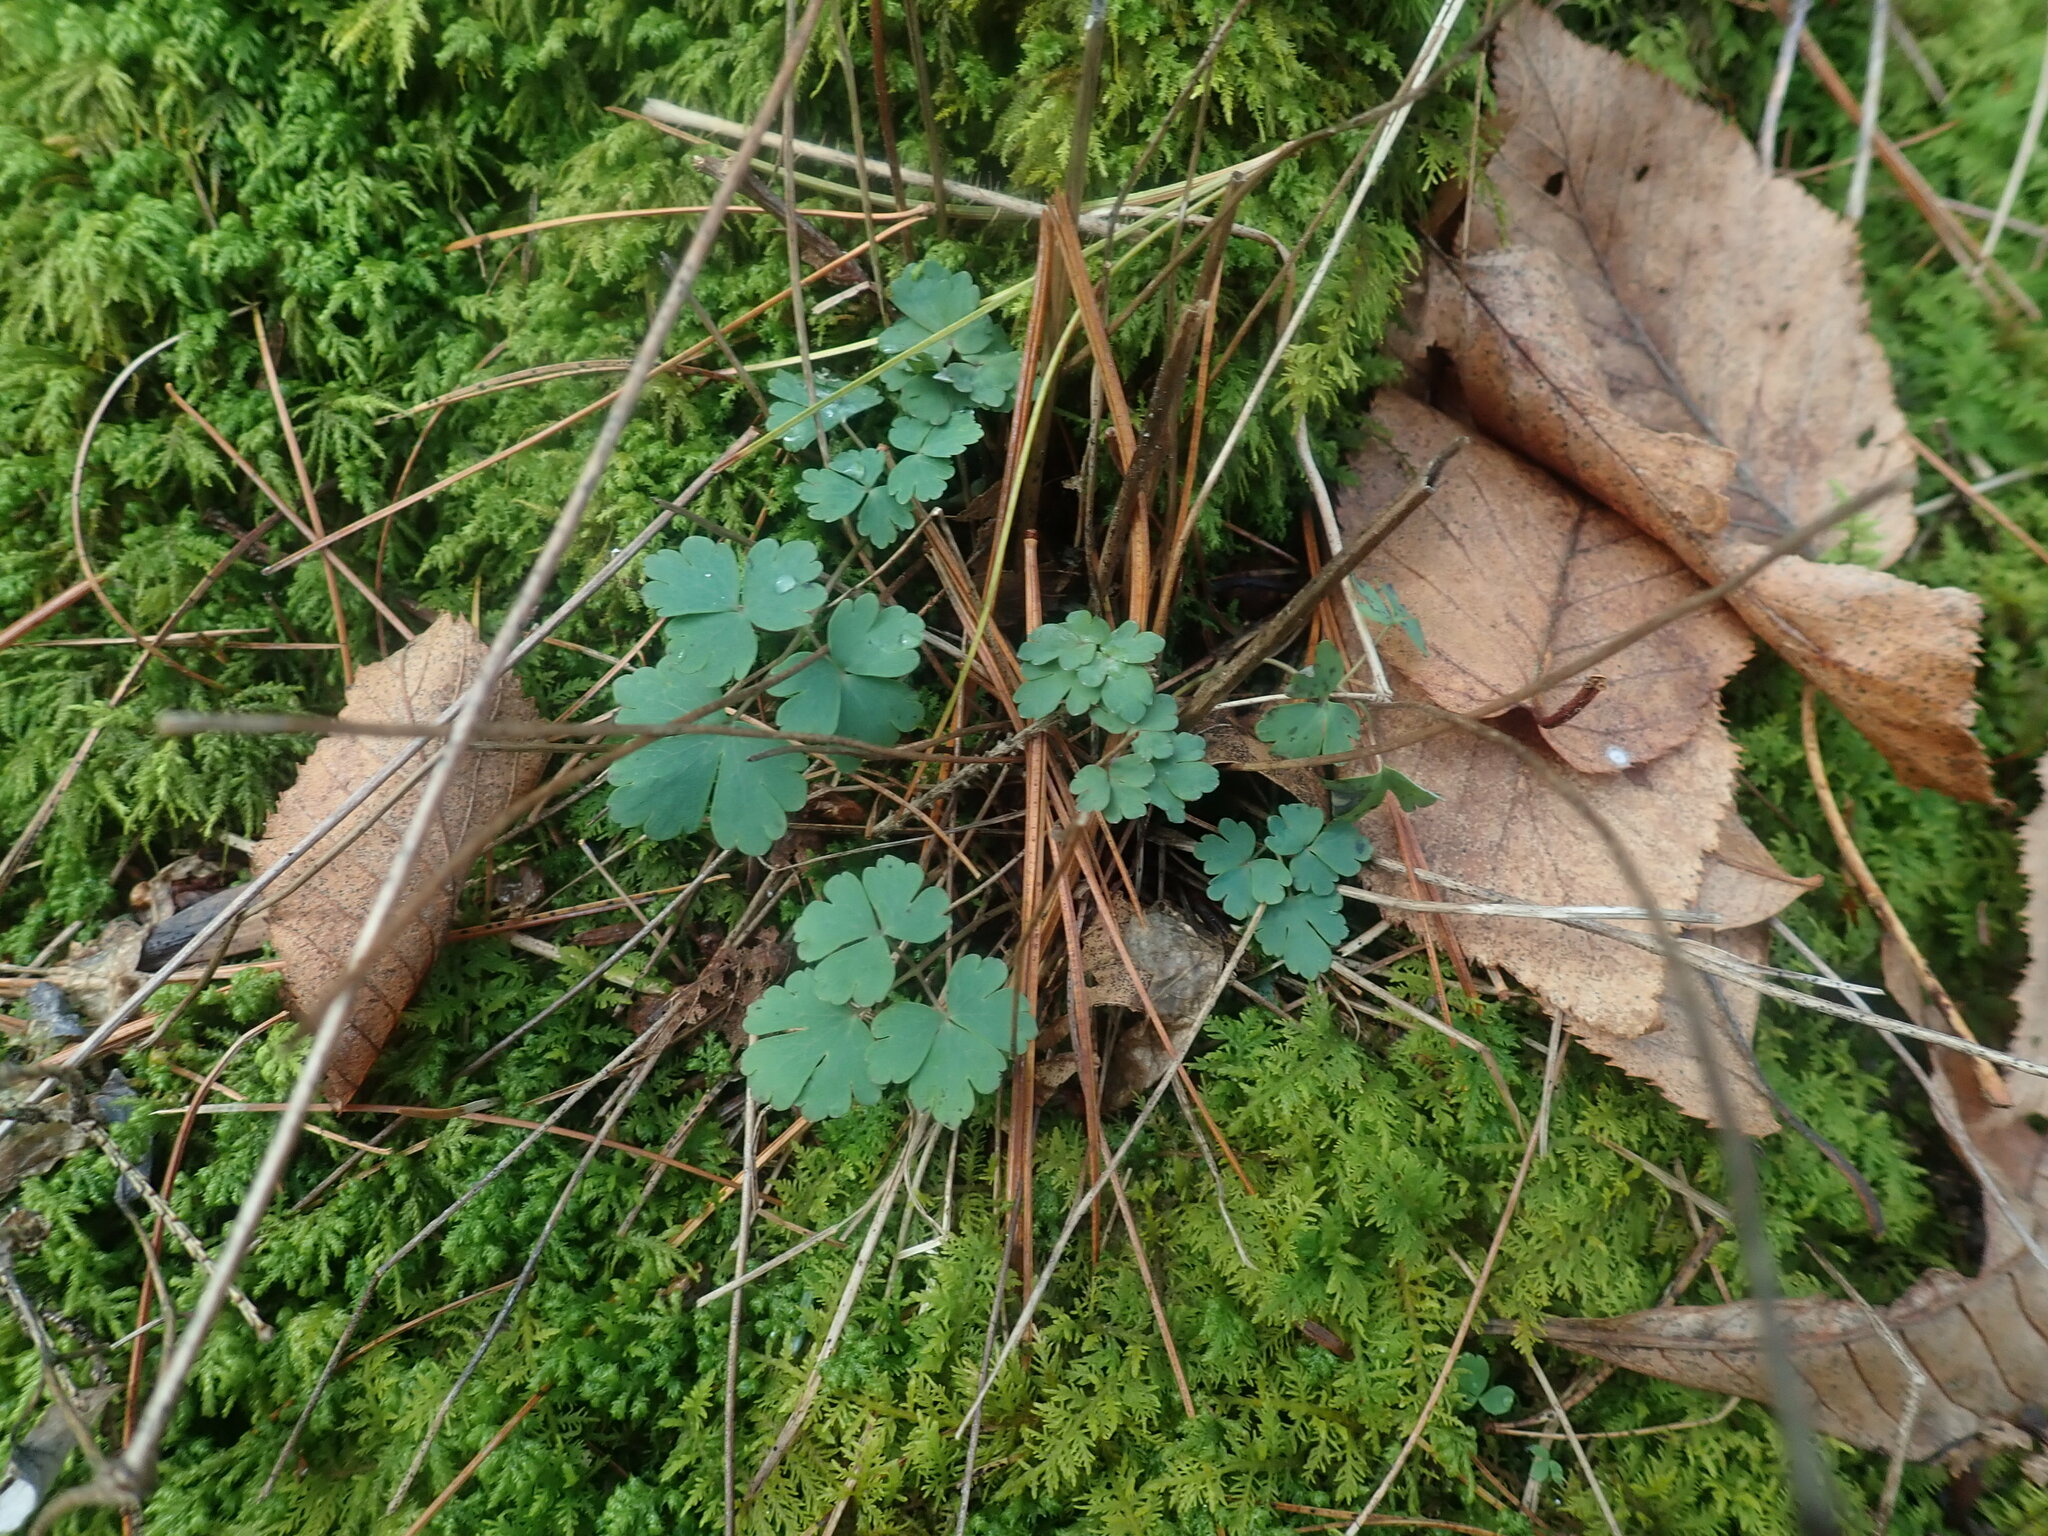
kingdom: Plantae
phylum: Tracheophyta
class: Magnoliopsida
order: Ranunculales
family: Ranunculaceae
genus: Aquilegia
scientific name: Aquilegia canadensis
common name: American columbine
